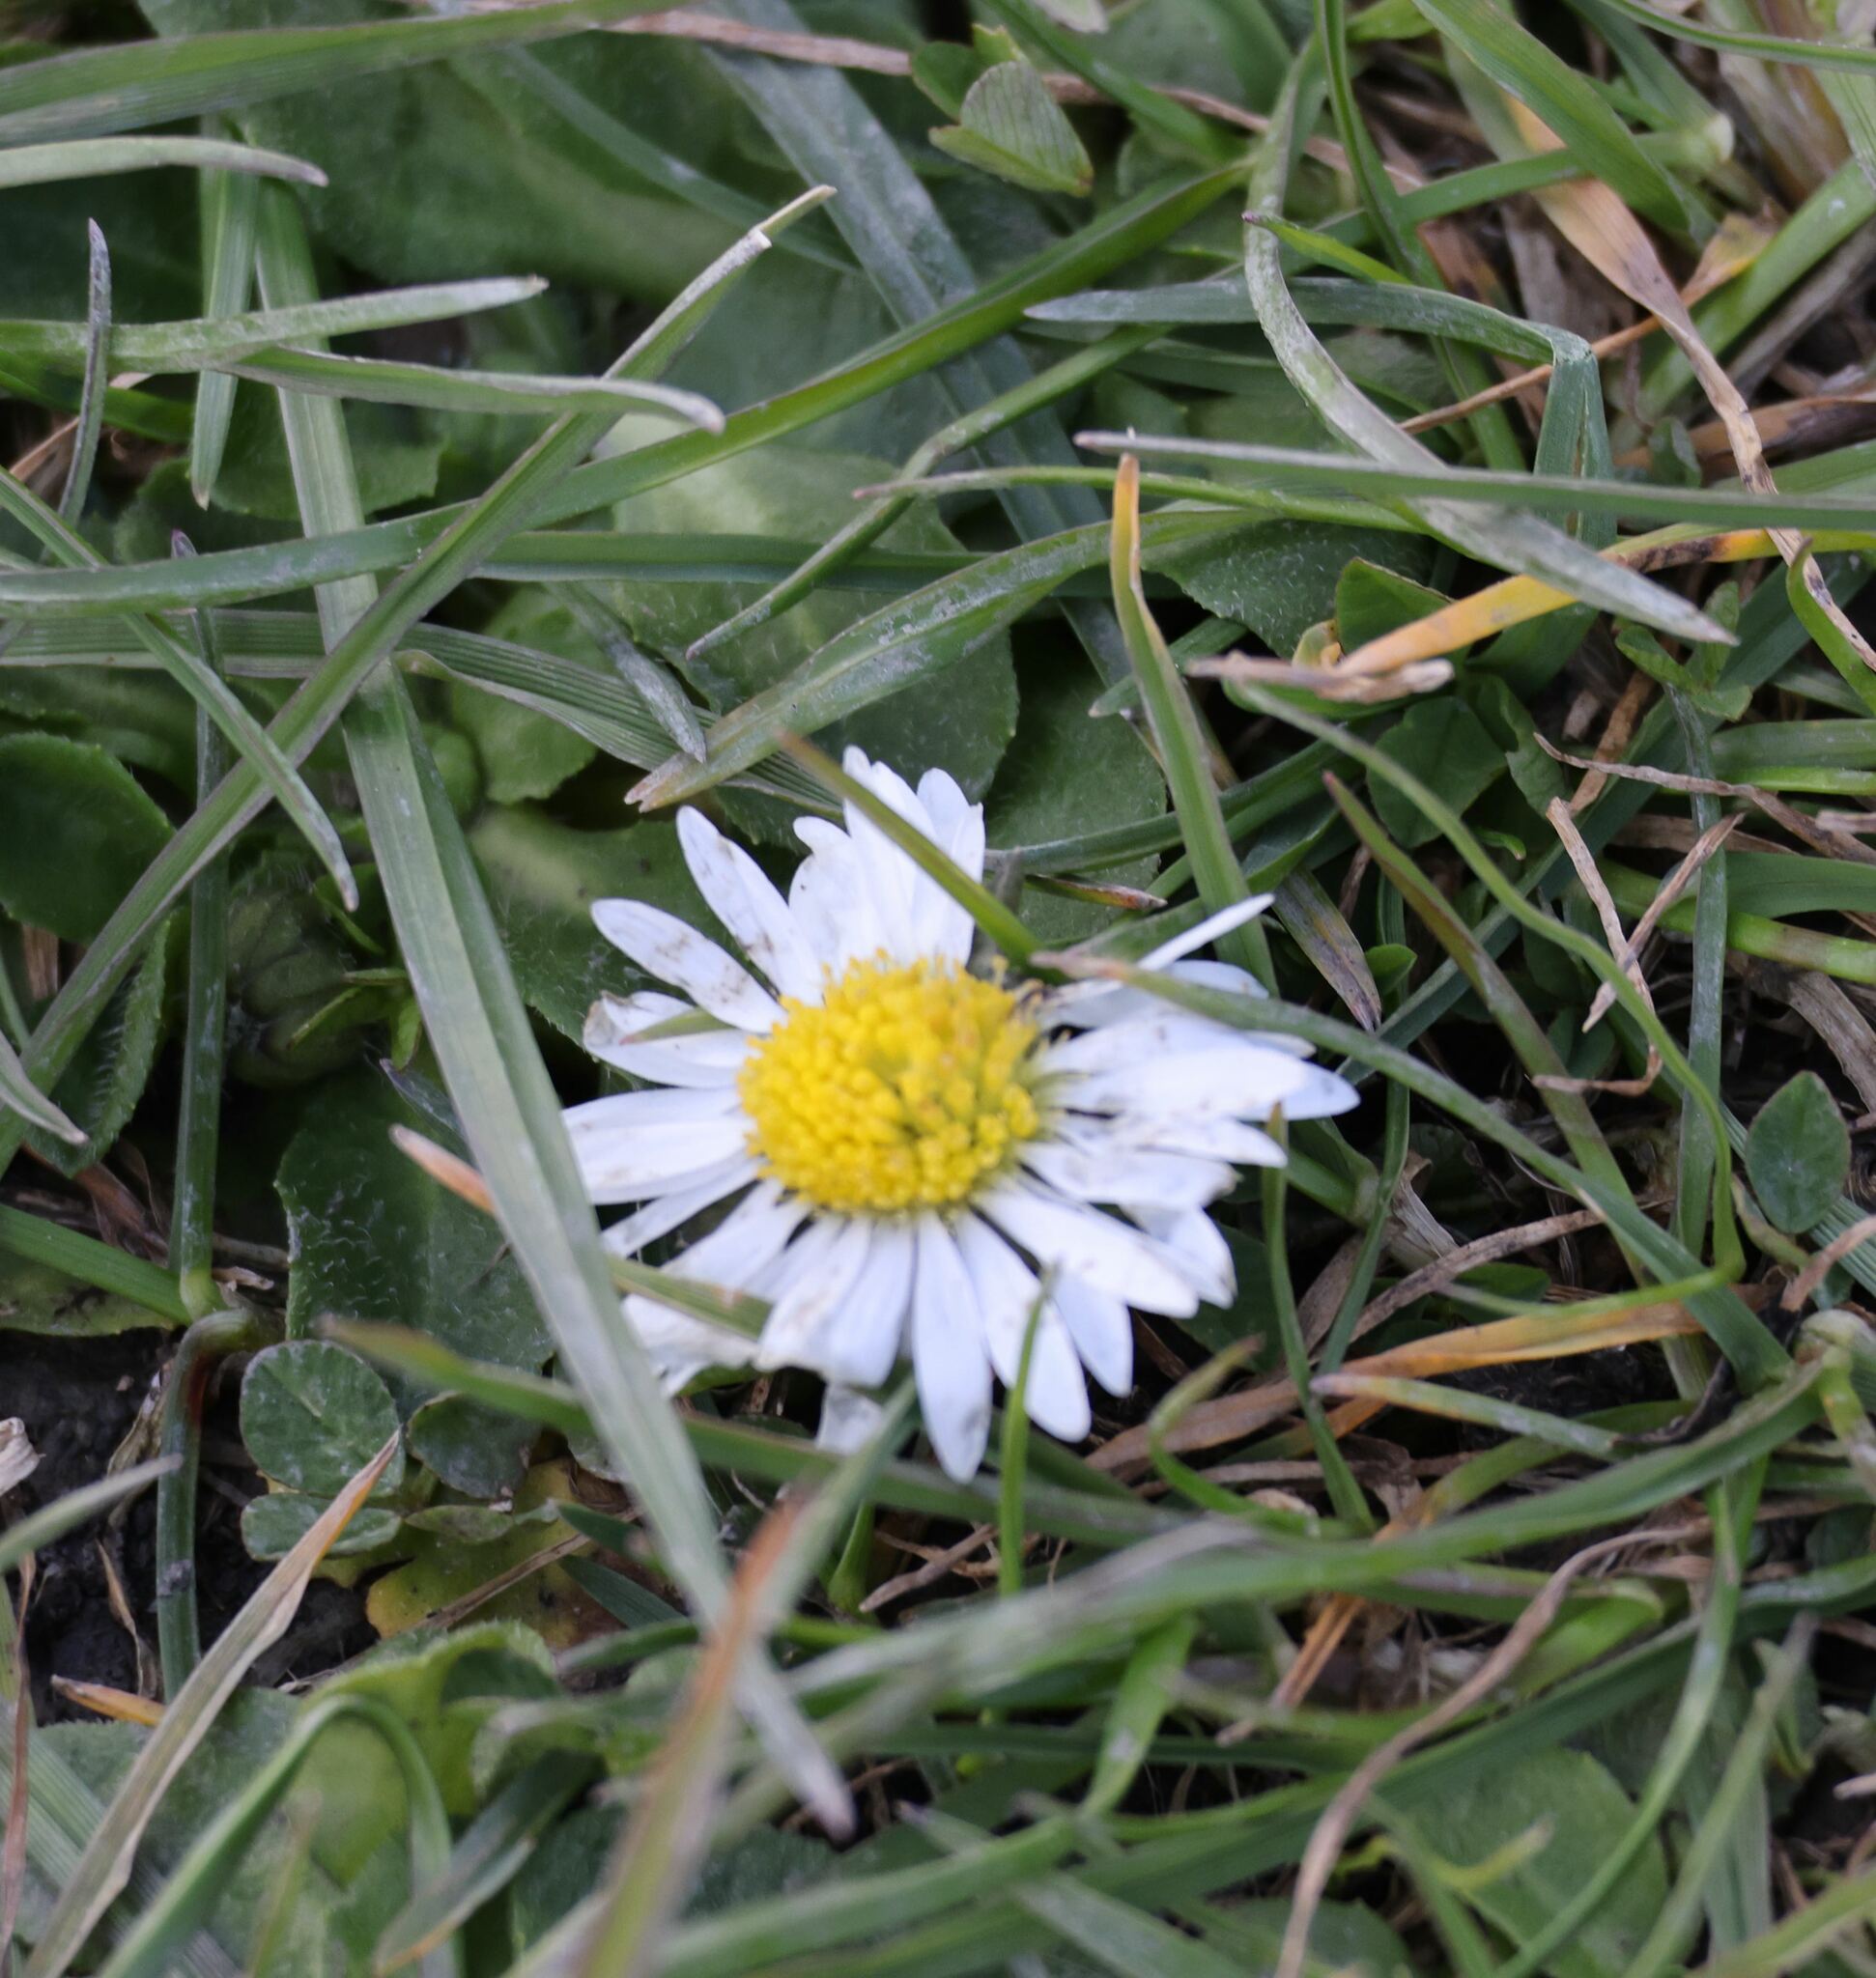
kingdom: Plantae
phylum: Tracheophyta
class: Magnoliopsida
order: Asterales
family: Asteraceae
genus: Bellis
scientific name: Bellis perennis
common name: Lawndaisy
